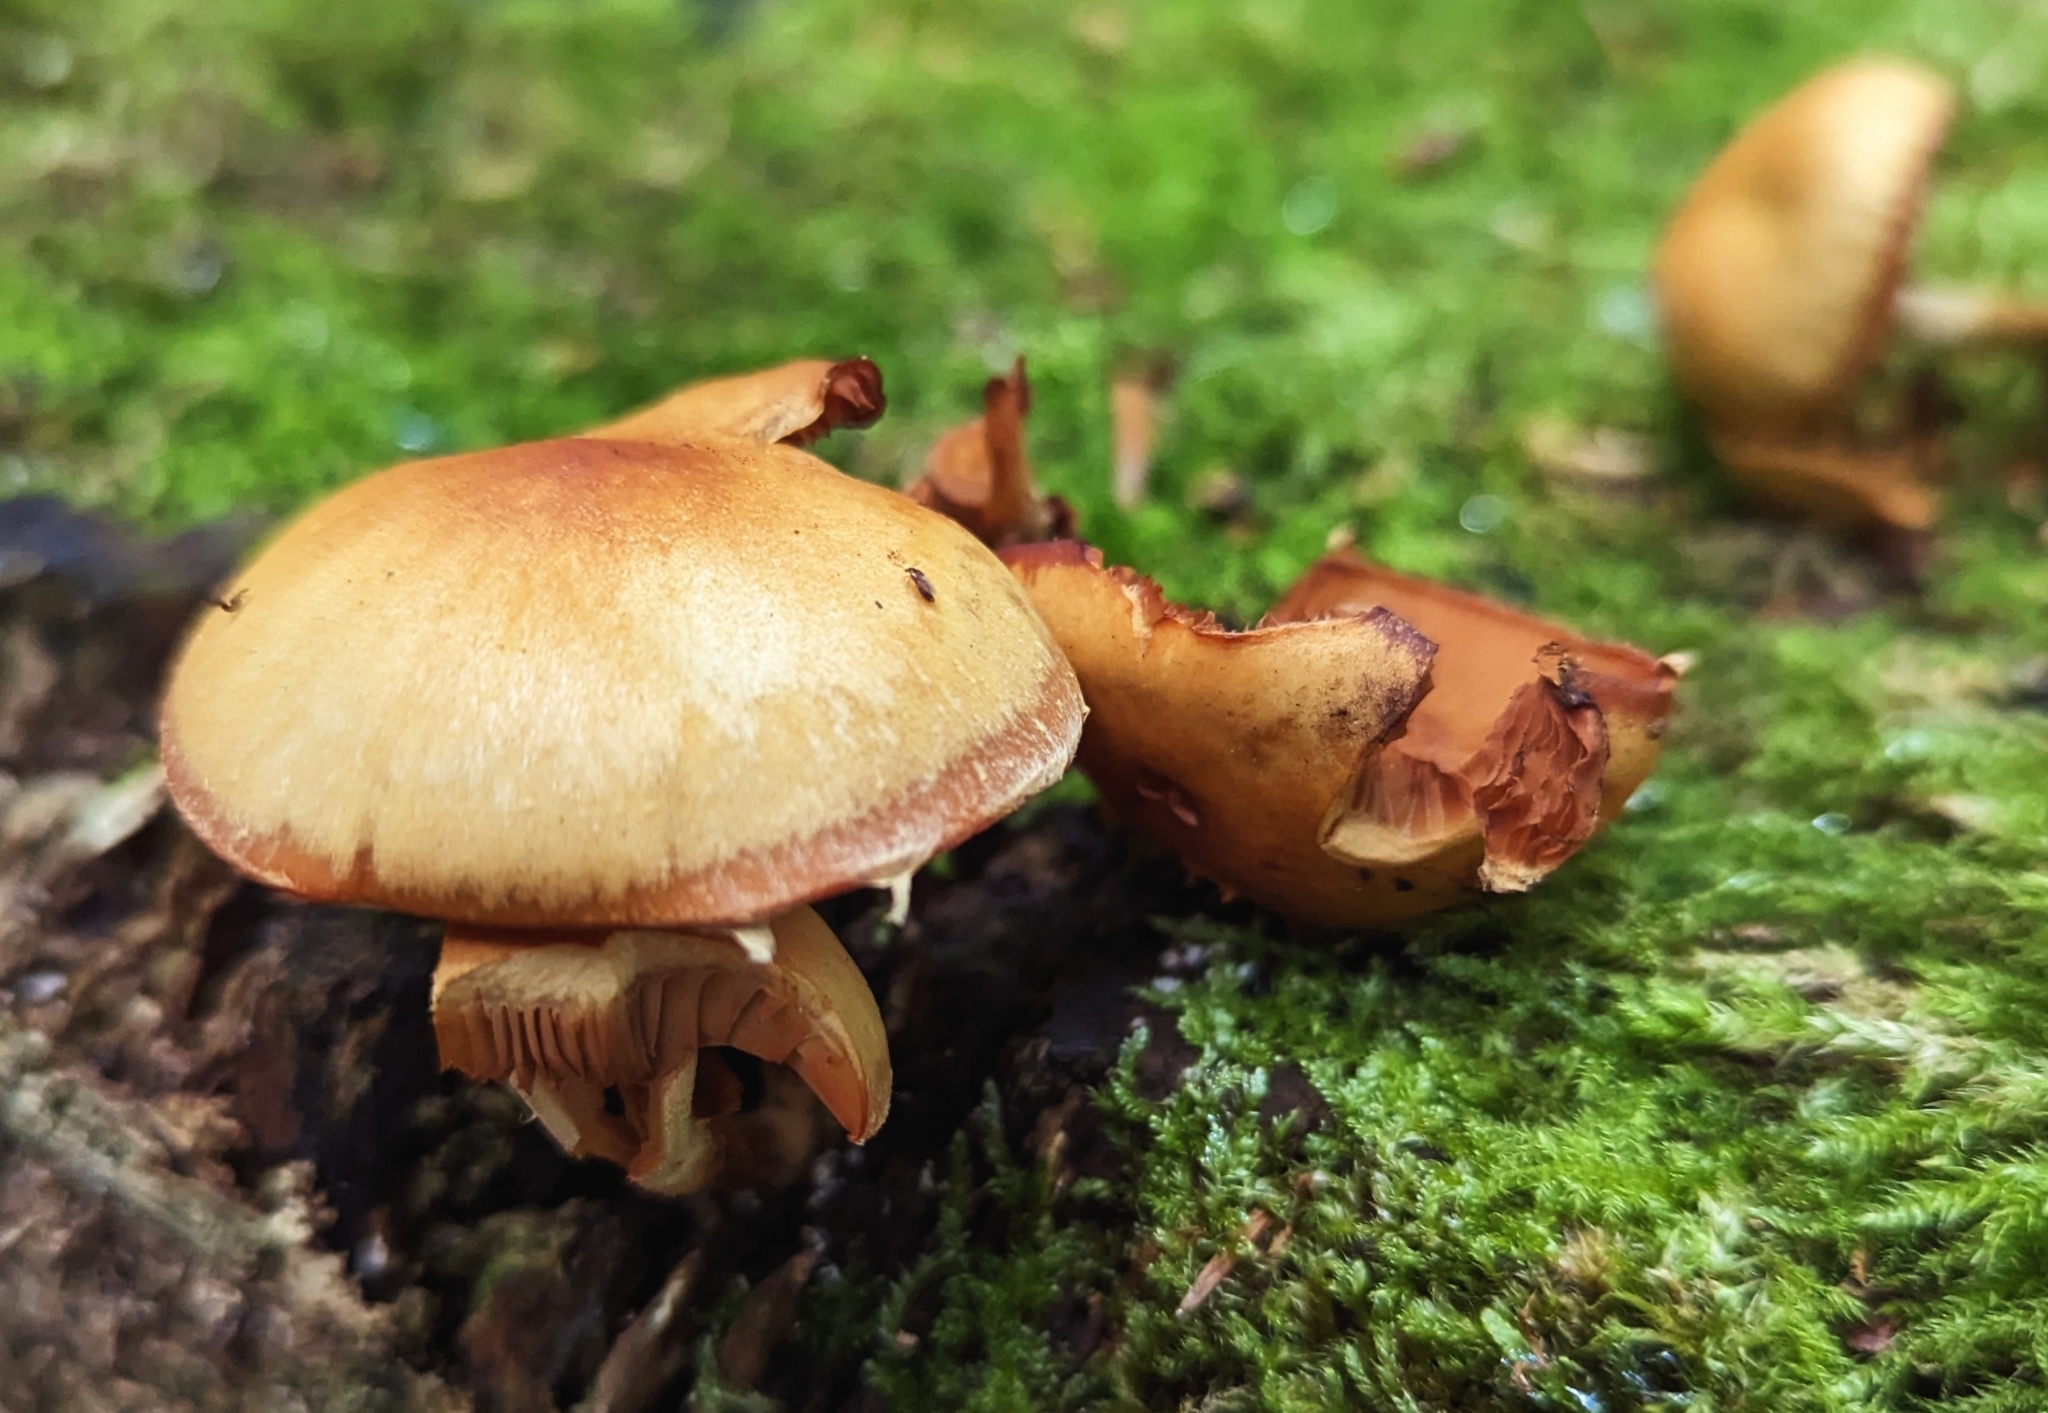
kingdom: Fungi
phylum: Basidiomycota
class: Agaricomycetes
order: Agaricales
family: Strophariaceae
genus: Kuehneromyces
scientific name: Kuehneromyces mutabilis
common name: Sheathed woodtuft
